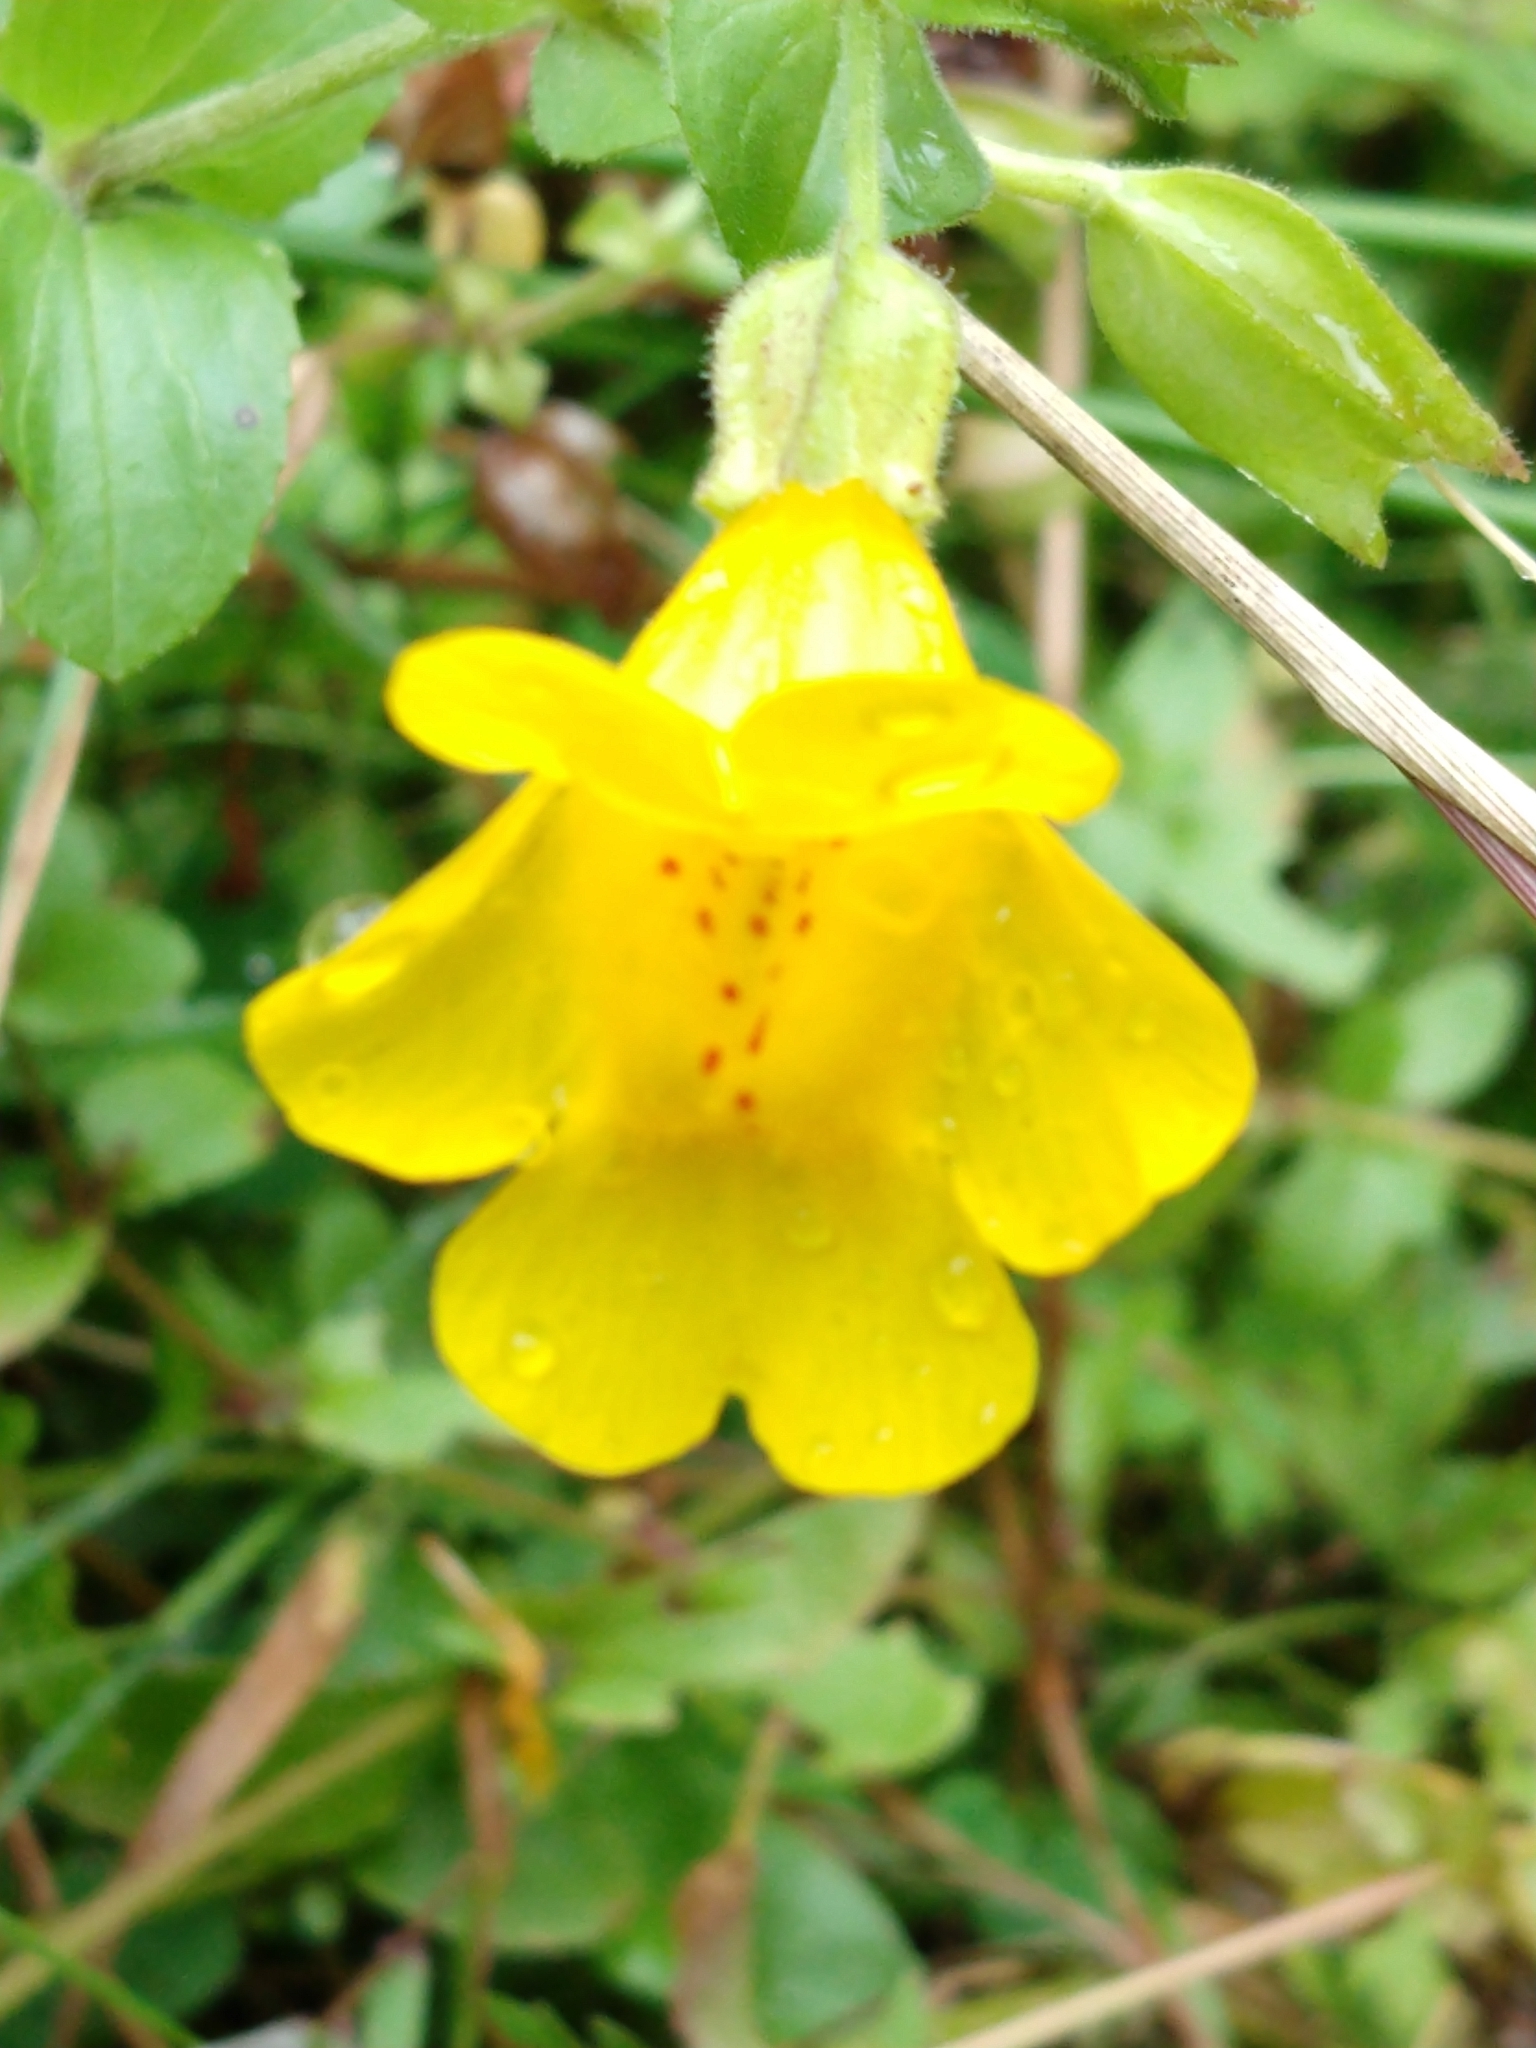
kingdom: Plantae
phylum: Tracheophyta
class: Magnoliopsida
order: Lamiales
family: Phrymaceae
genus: Erythranthe
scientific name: Erythranthe guttata
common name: Monkeyflower
